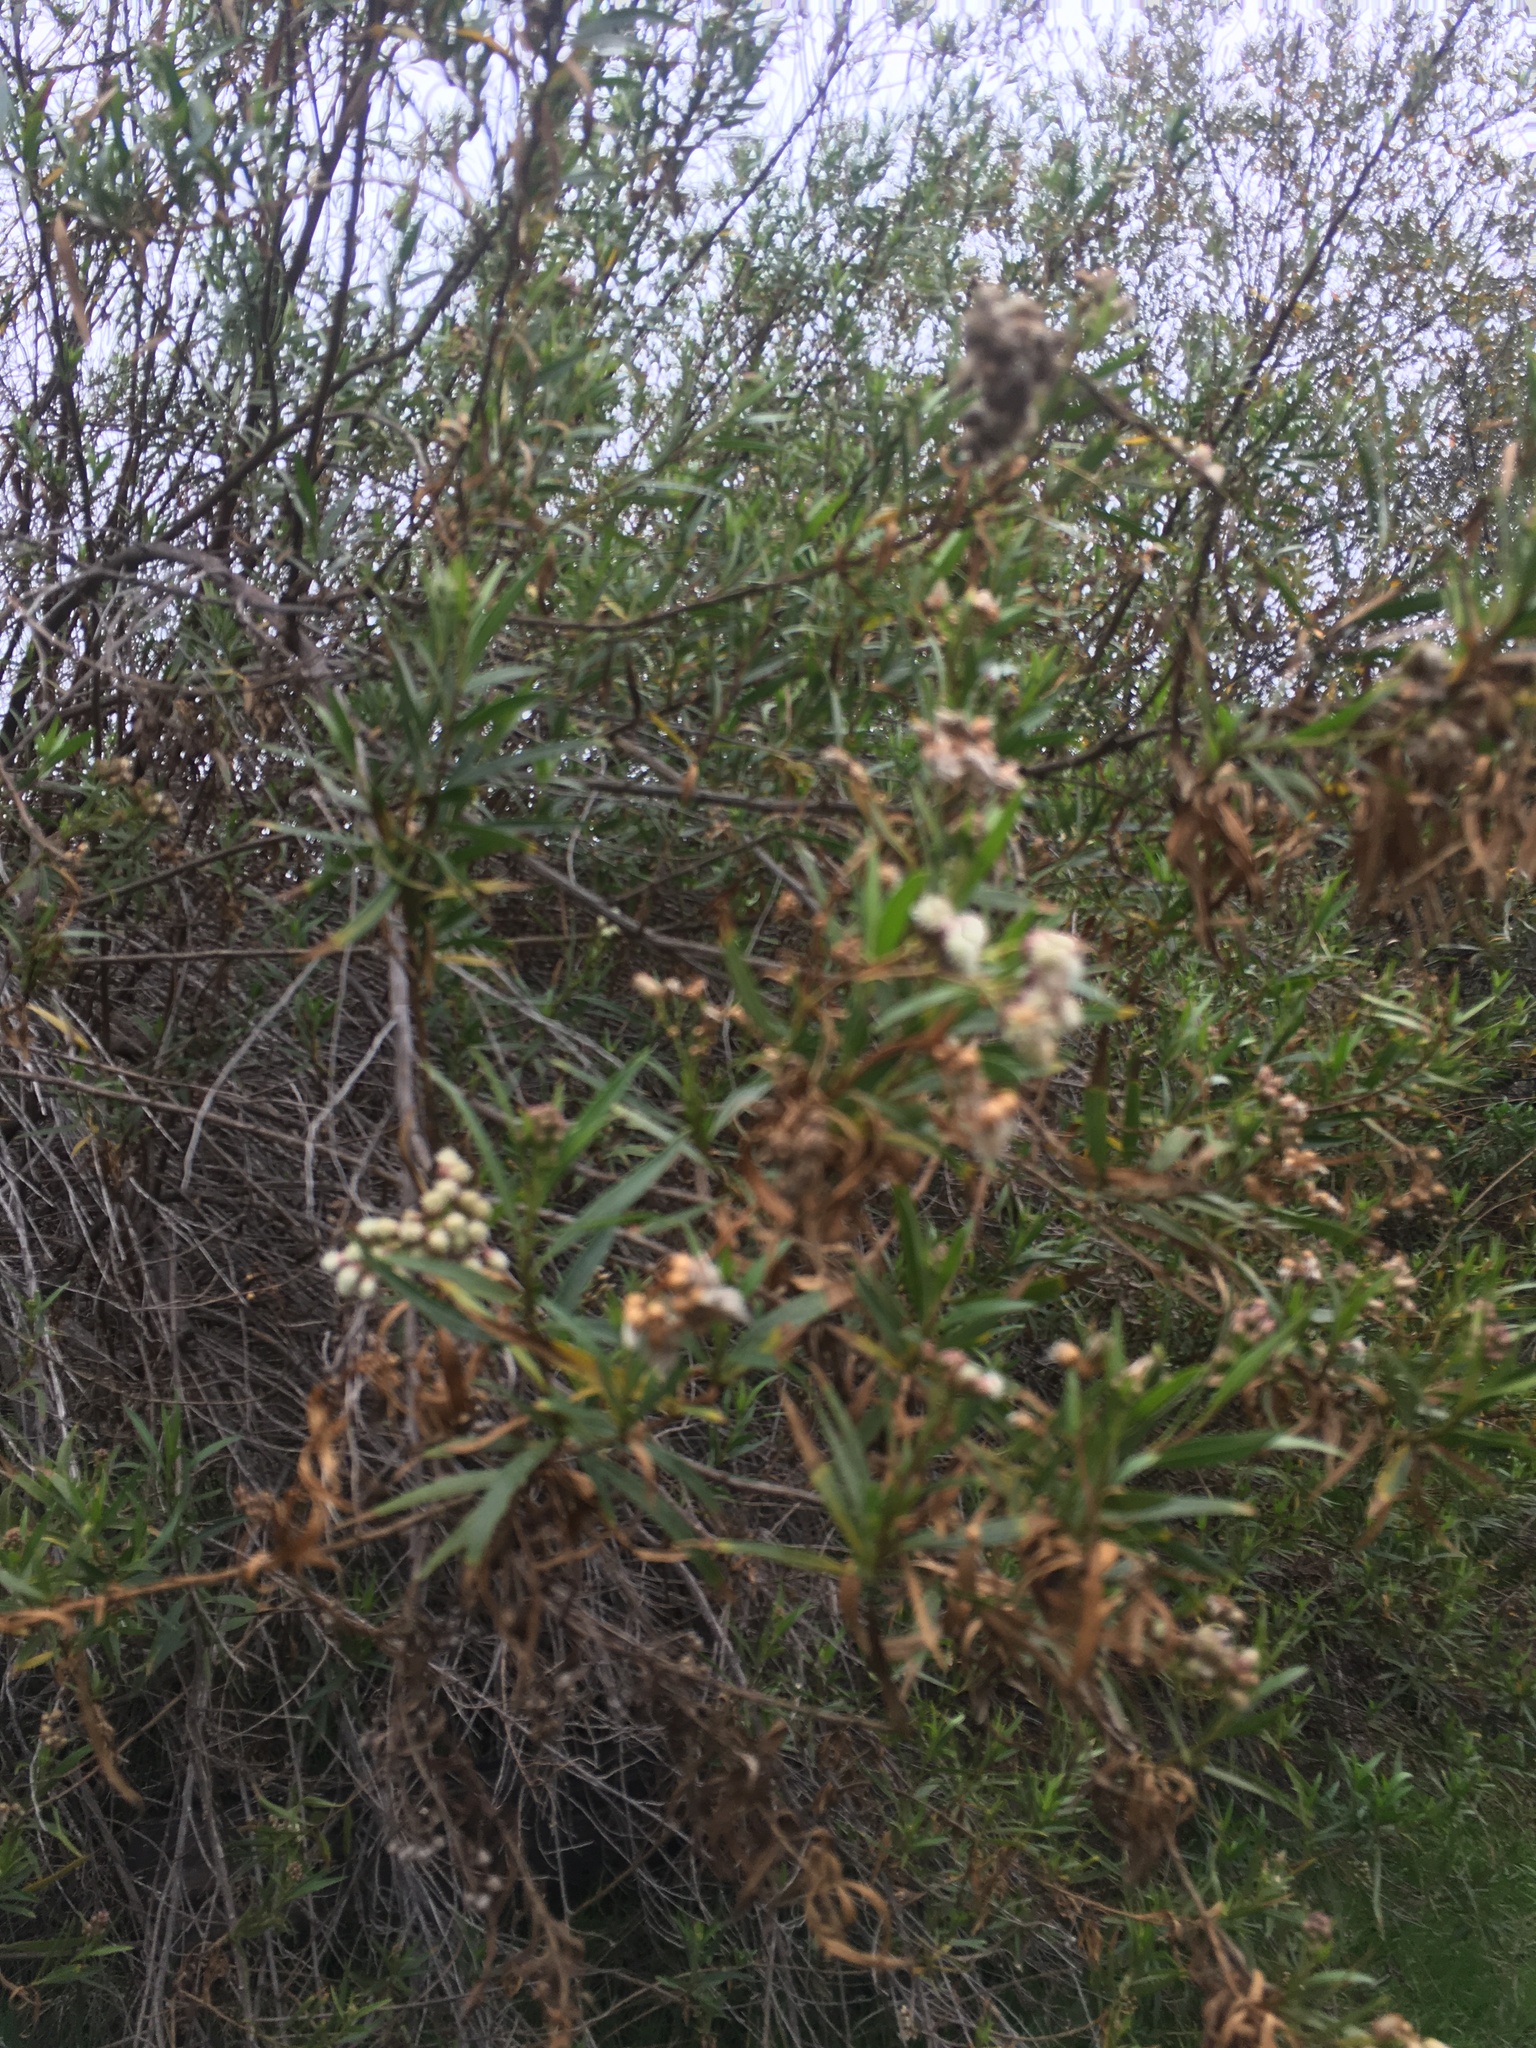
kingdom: Plantae
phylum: Tracheophyta
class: Magnoliopsida
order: Asterales
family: Asteraceae
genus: Baccharis
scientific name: Baccharis glutinosa
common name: Saltmarsh baccharis
